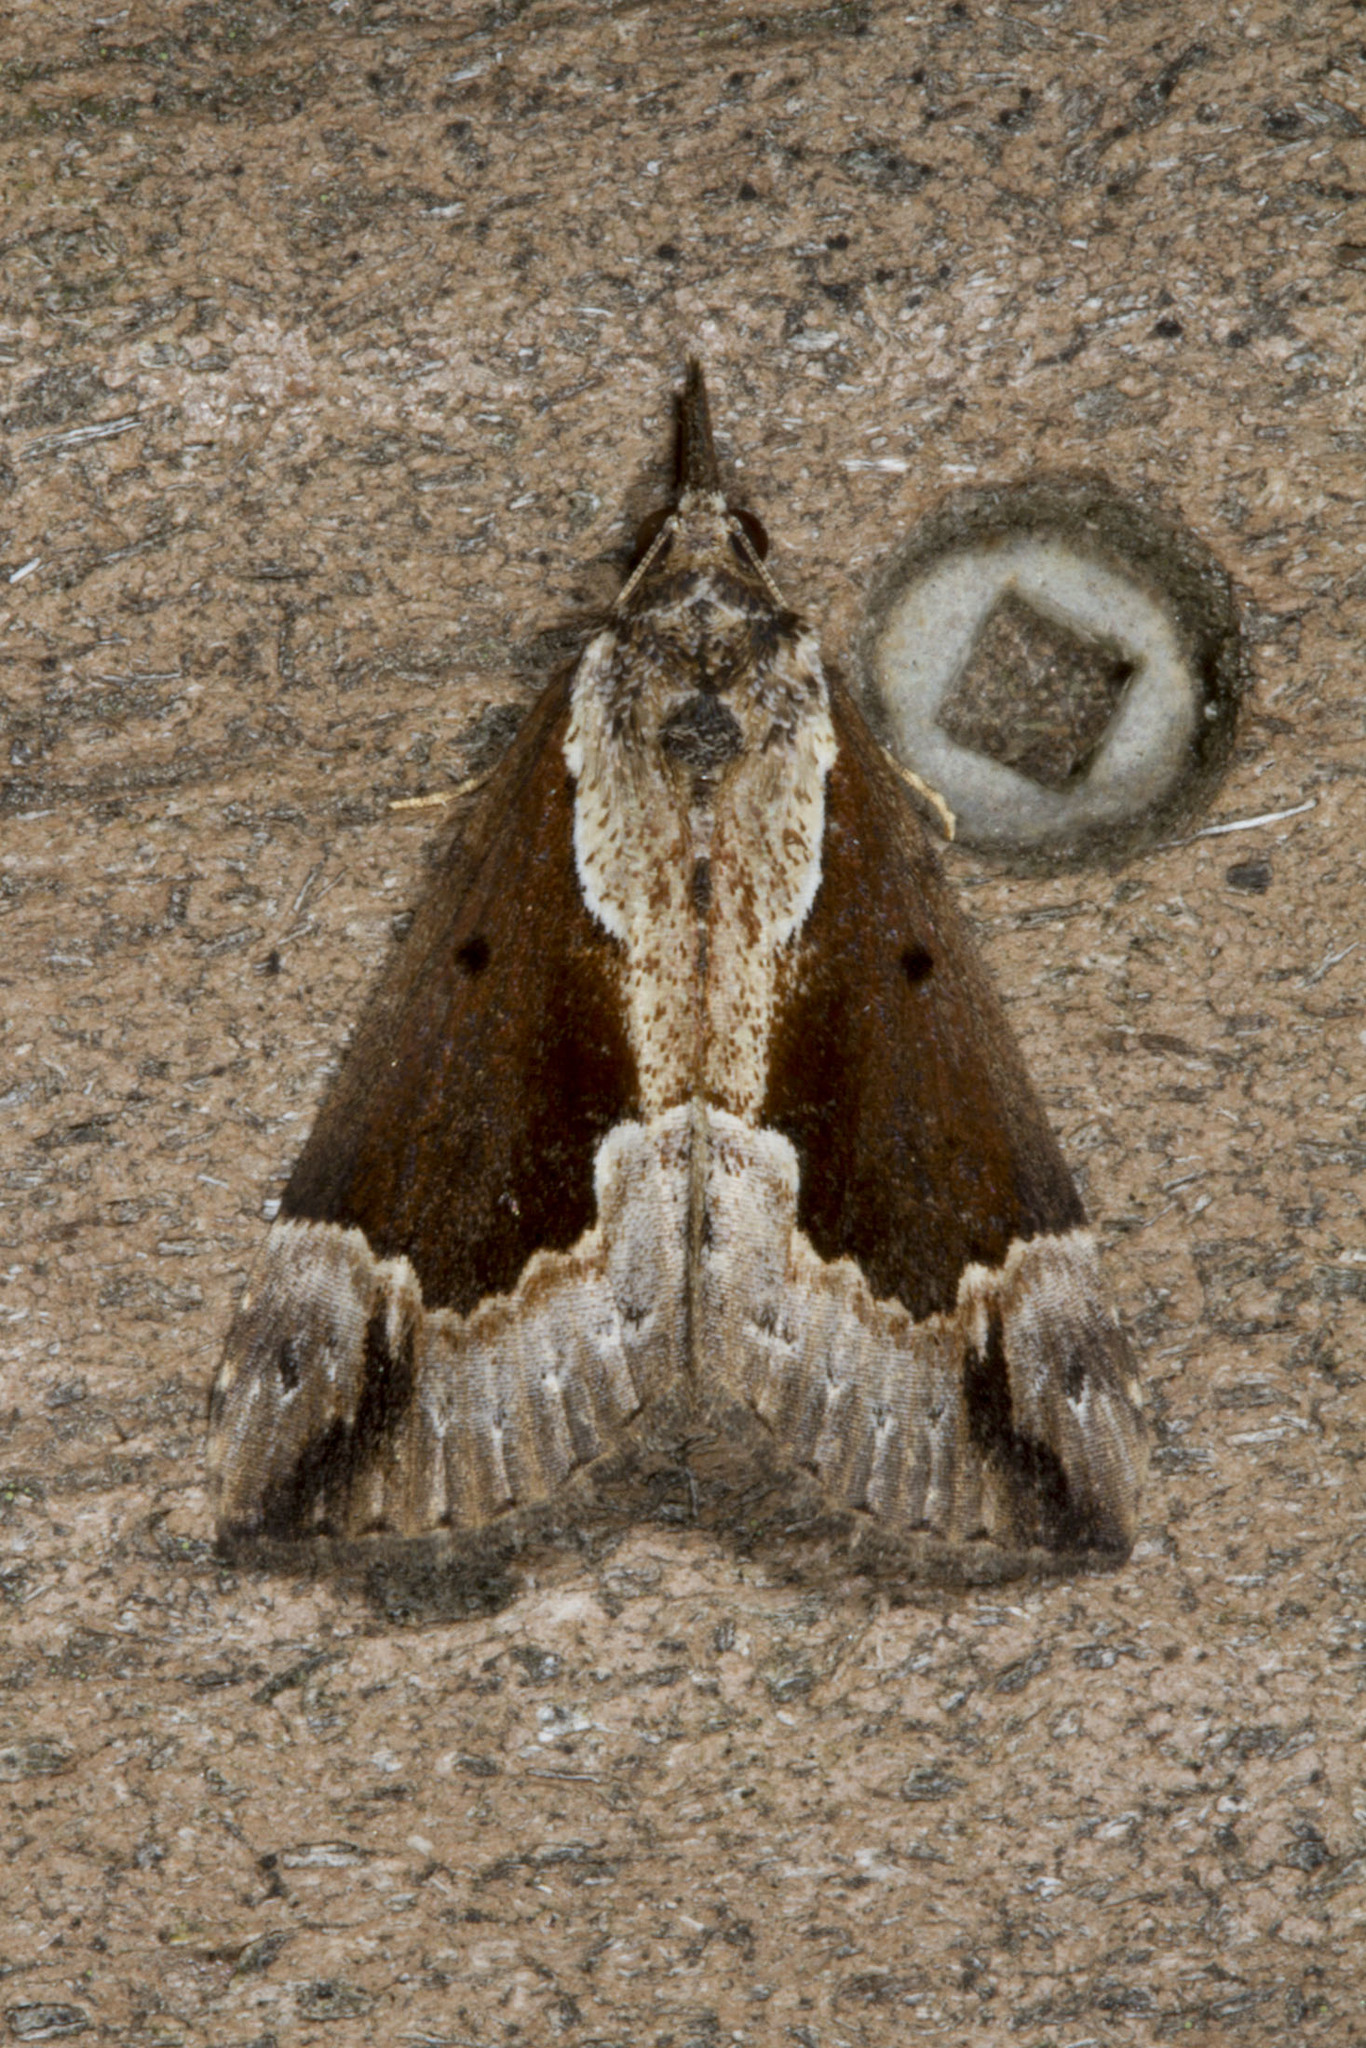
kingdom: Animalia
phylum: Arthropoda
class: Insecta
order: Lepidoptera
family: Erebidae
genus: Hypena
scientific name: Hypena baltimoralis
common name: Baltimore snout
